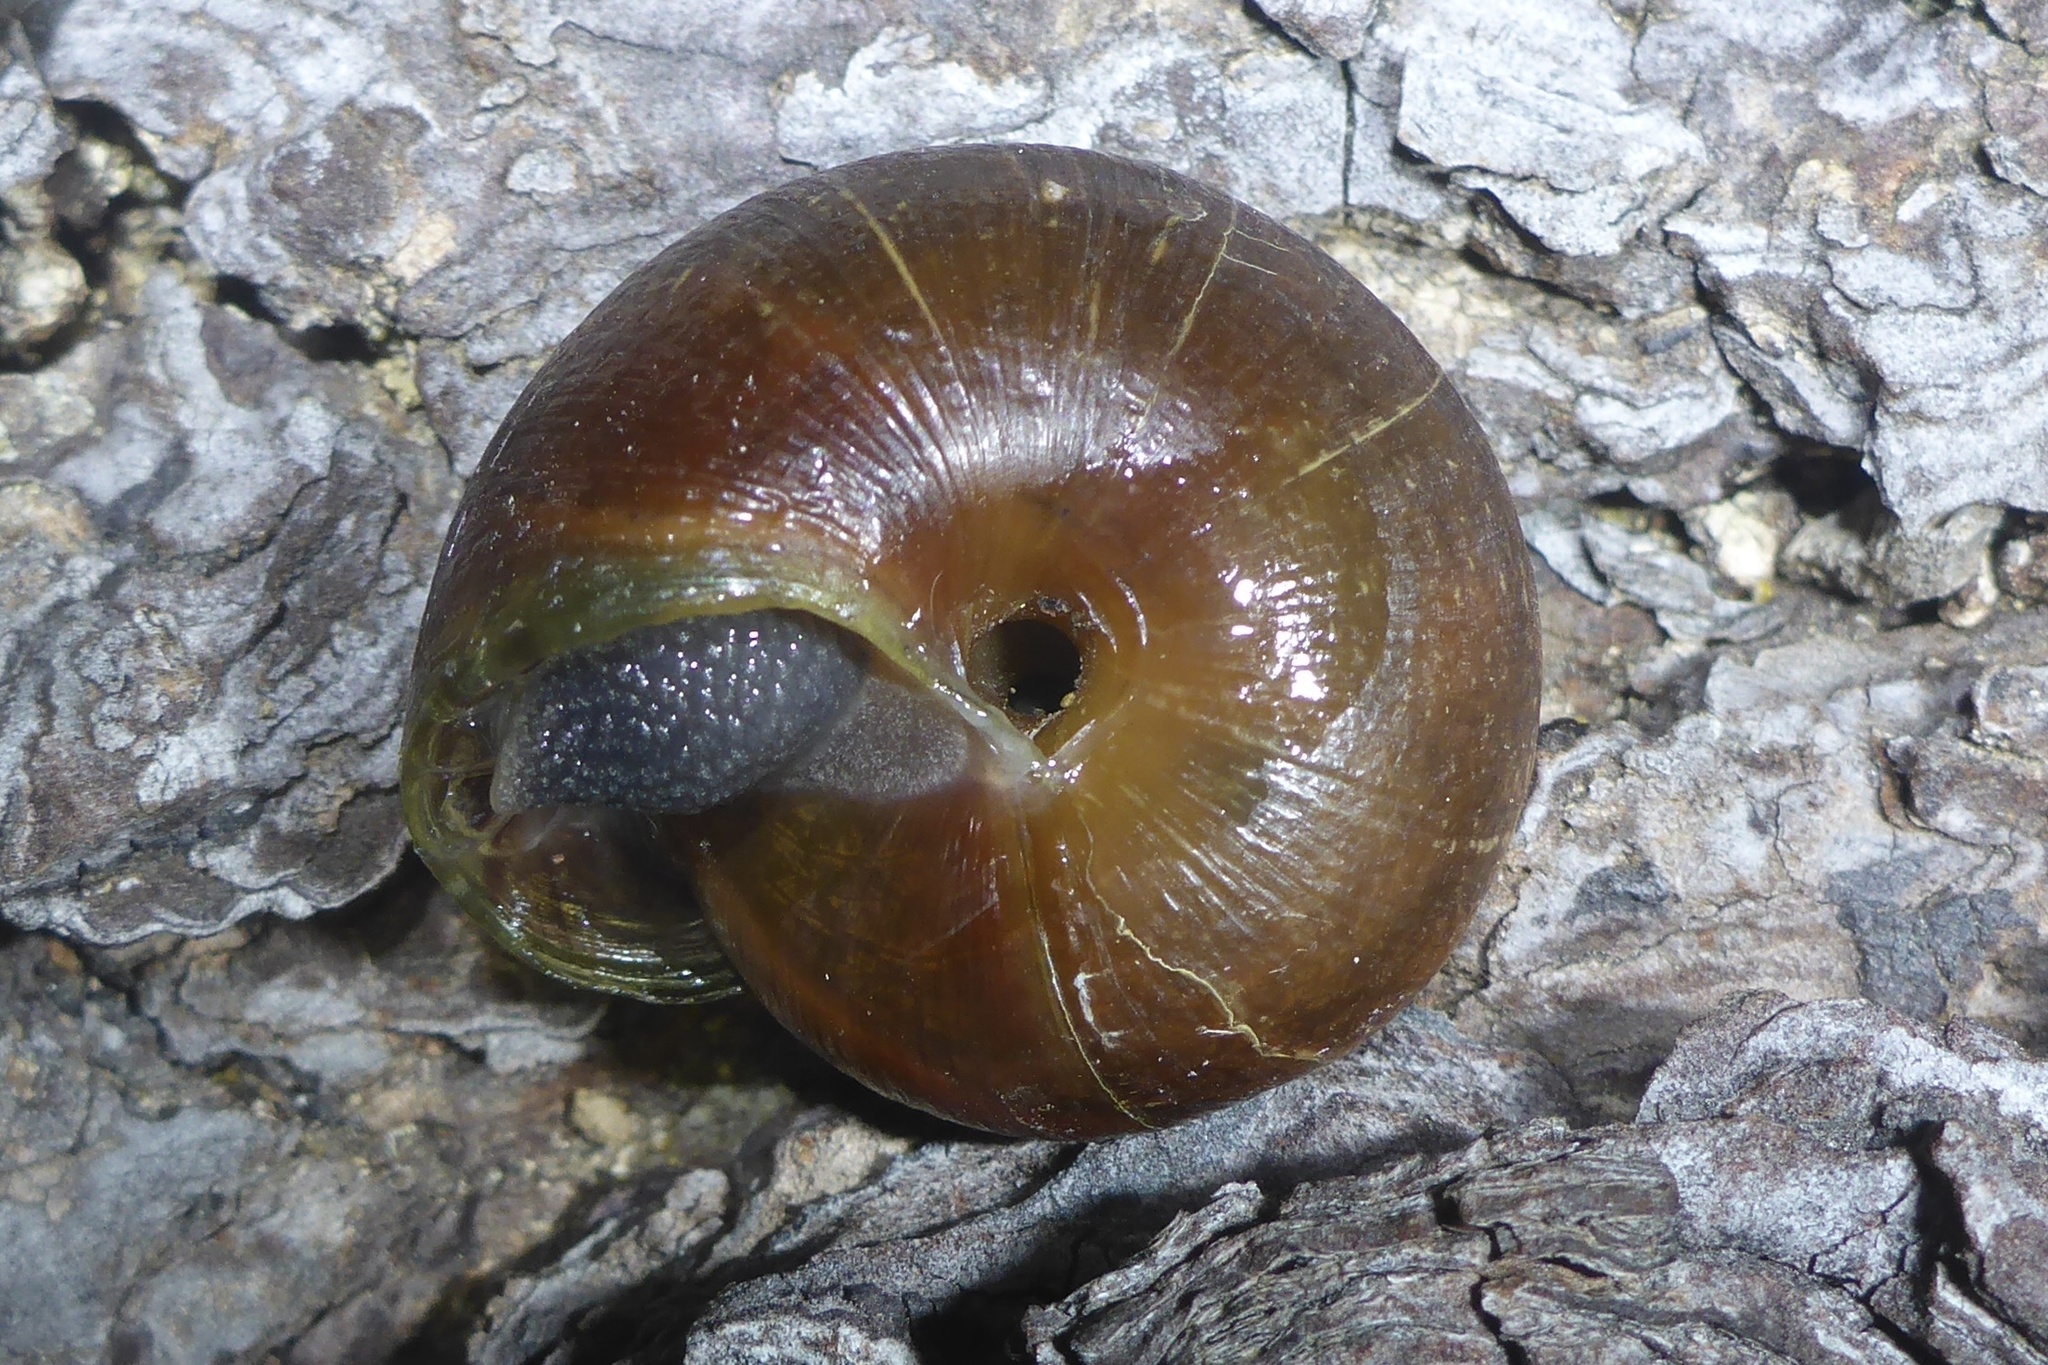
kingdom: Animalia
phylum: Mollusca
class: Gastropoda
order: Stylommatophora
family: Xanthonychidae
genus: Helminthoglypta
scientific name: Helminthoglypta arrosa
